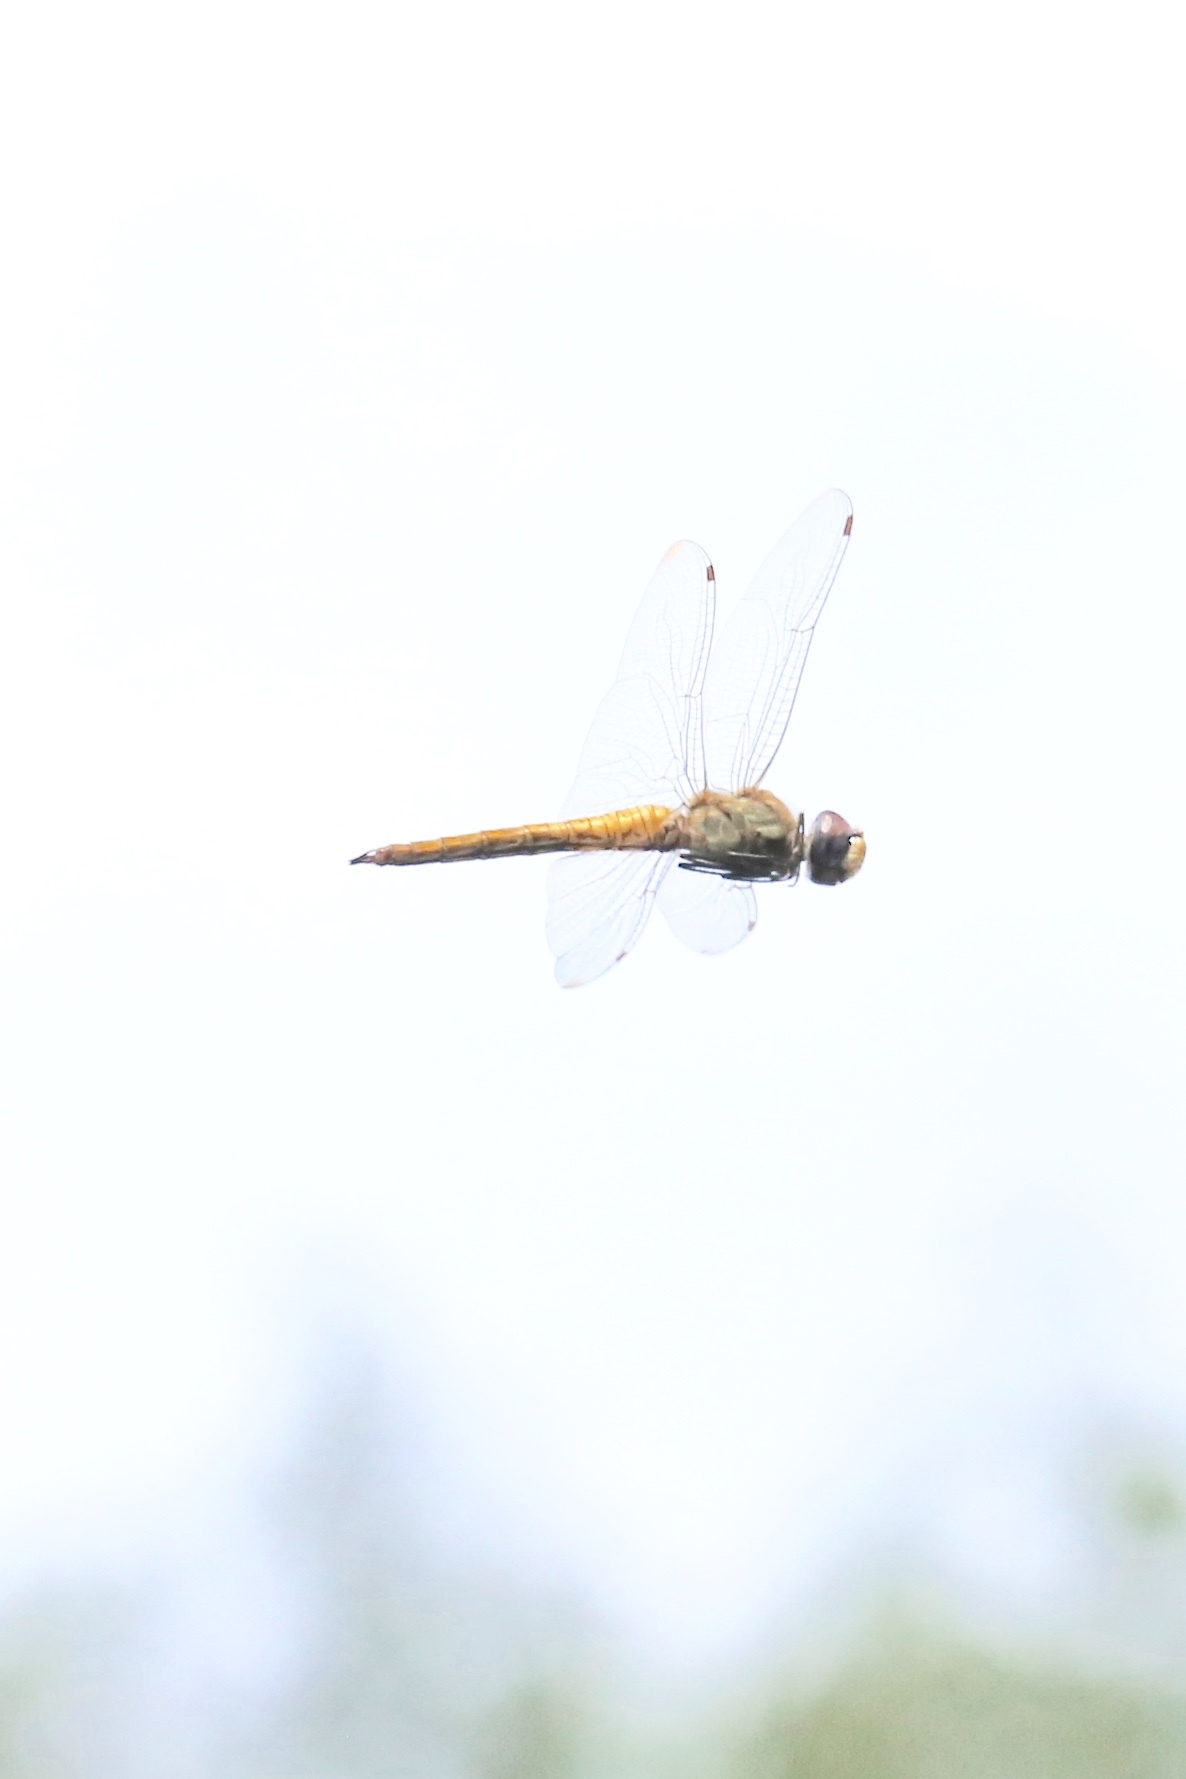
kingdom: Animalia
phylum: Arthropoda
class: Insecta
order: Odonata
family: Libellulidae
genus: Pantala
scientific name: Pantala flavescens
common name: Wandering glider
